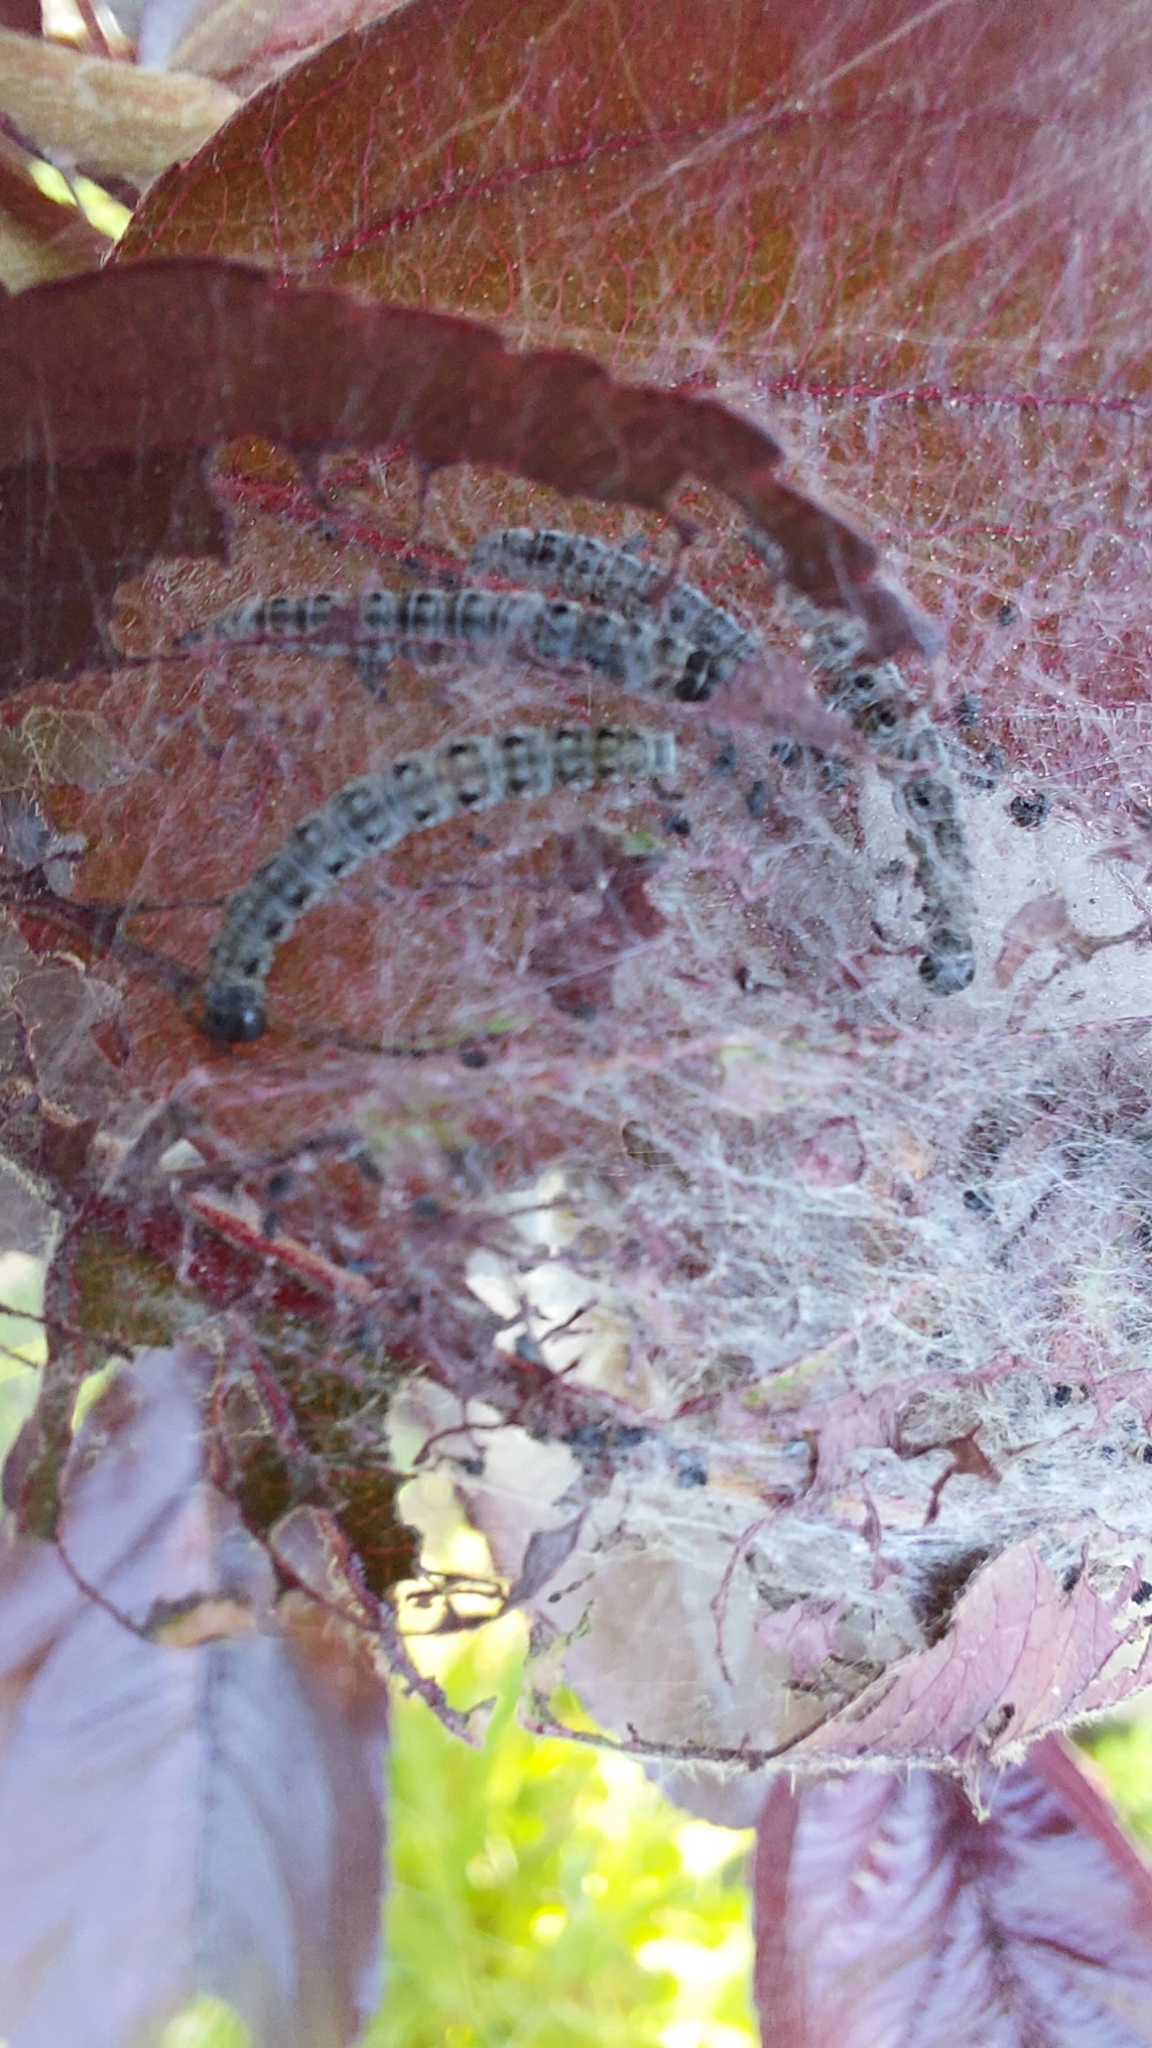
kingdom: Animalia
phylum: Arthropoda
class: Insecta
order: Lepidoptera
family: Yponomeutidae
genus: Yponomeuta
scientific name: Yponomeuta padella
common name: Orchard ermine
